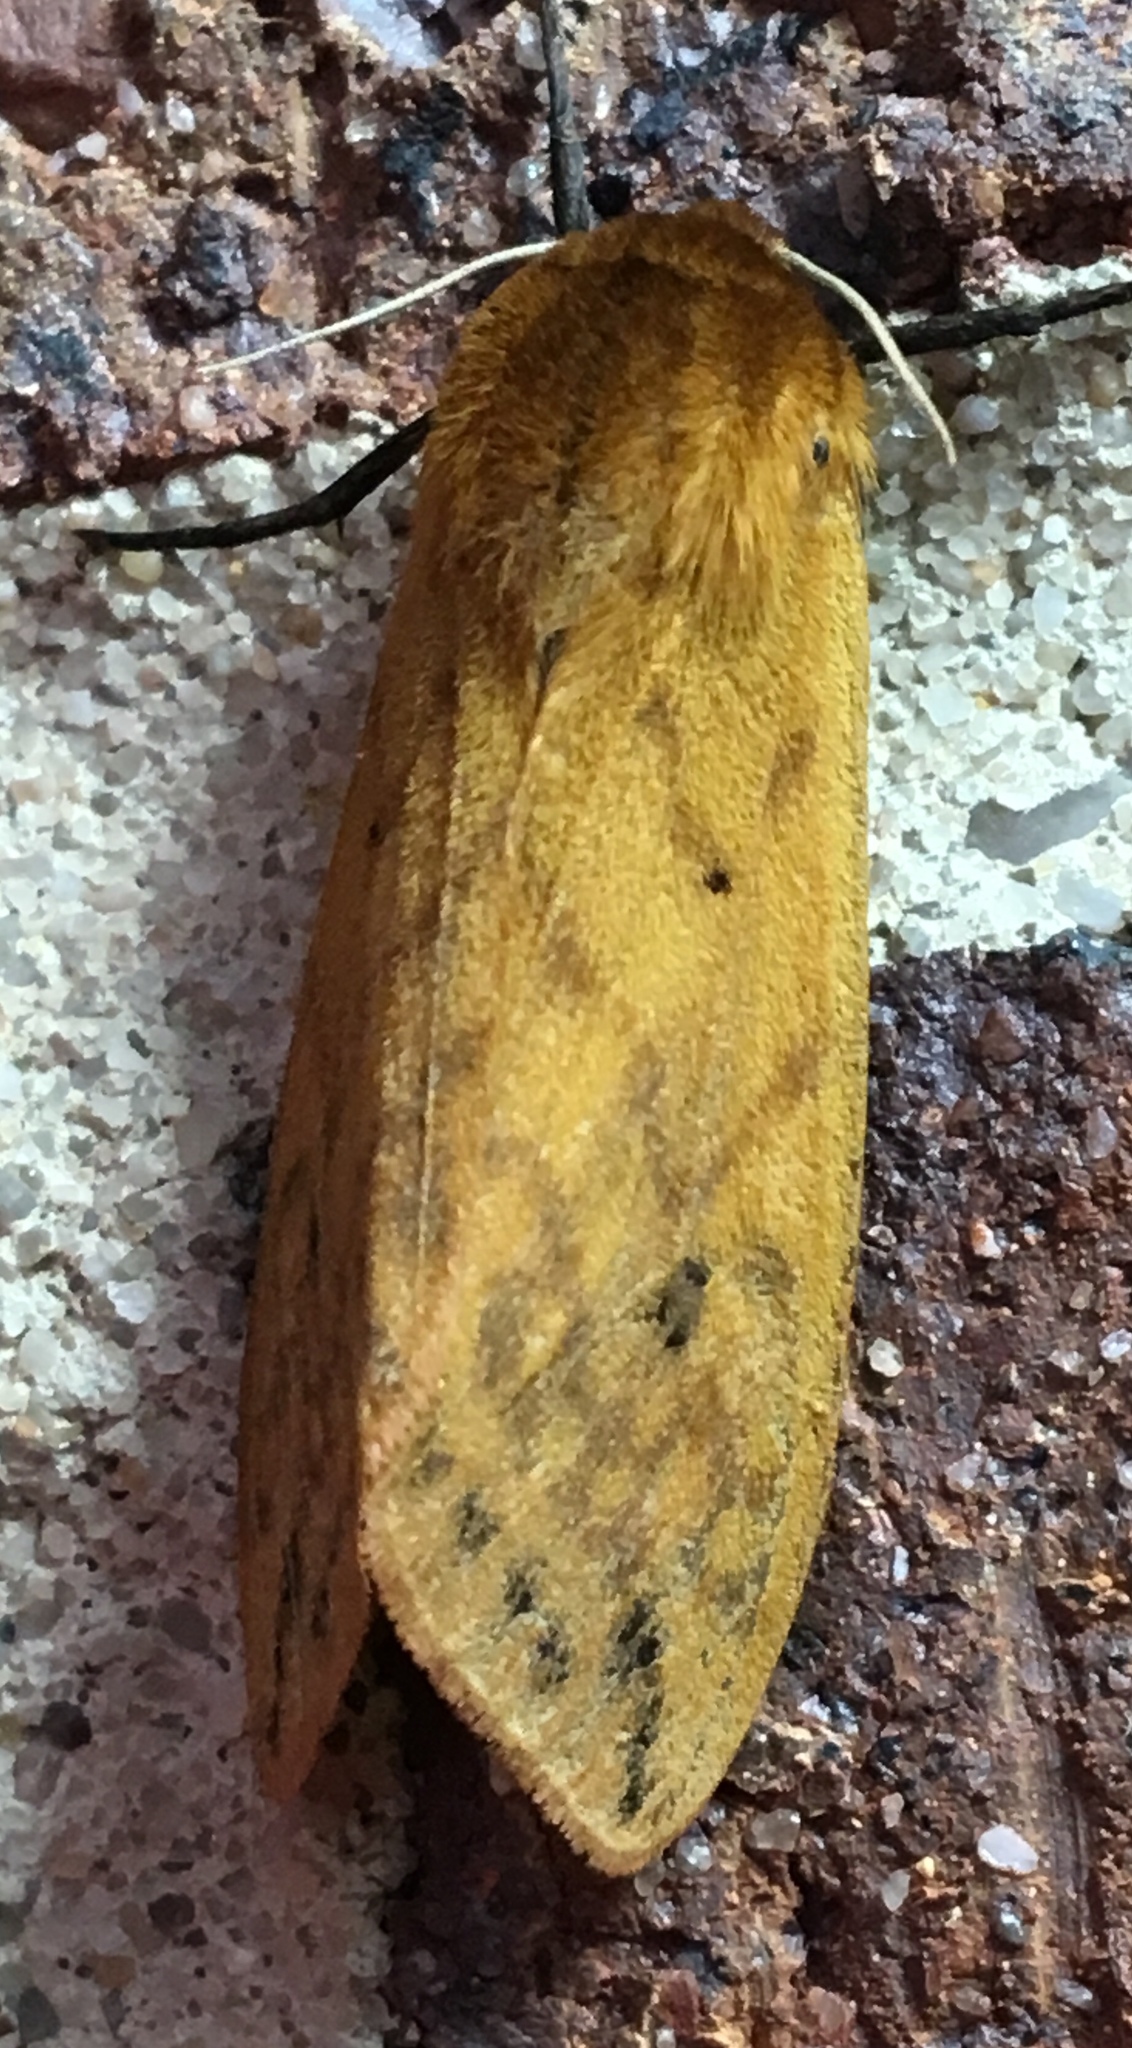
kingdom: Animalia
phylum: Arthropoda
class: Insecta
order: Lepidoptera
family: Erebidae
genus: Pyrrharctia
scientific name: Pyrrharctia isabella
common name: Isabella tiger moth
